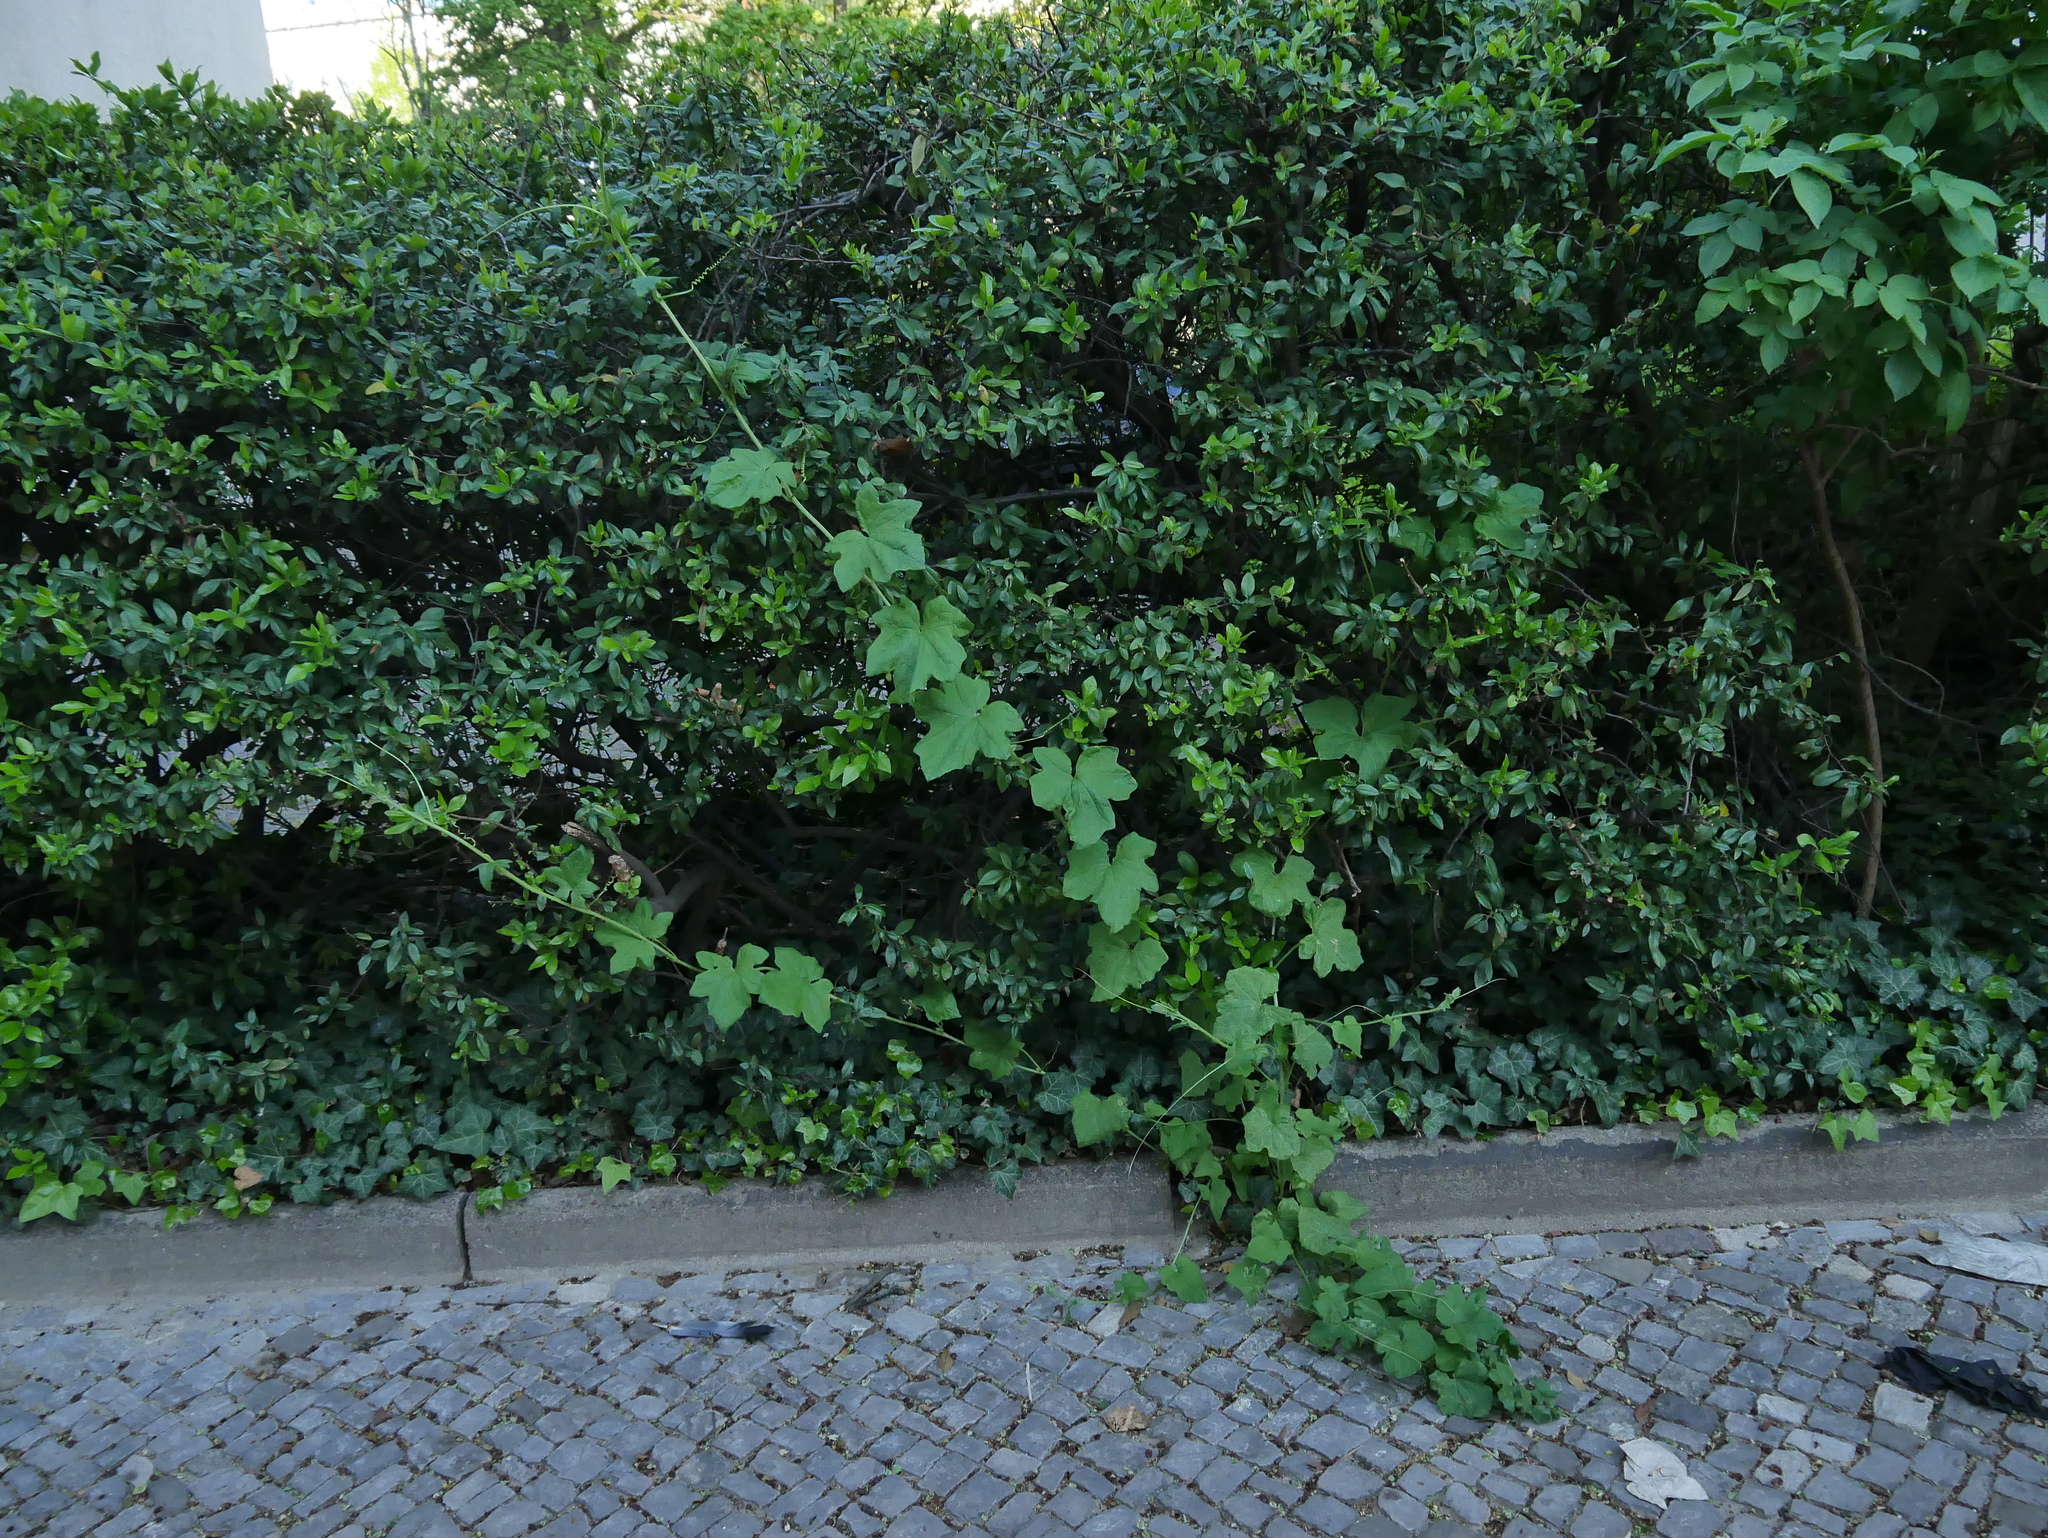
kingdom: Plantae
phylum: Tracheophyta
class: Magnoliopsida
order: Cucurbitales
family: Cucurbitaceae
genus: Bryonia
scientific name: Bryonia cretica
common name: Cretan bryony
